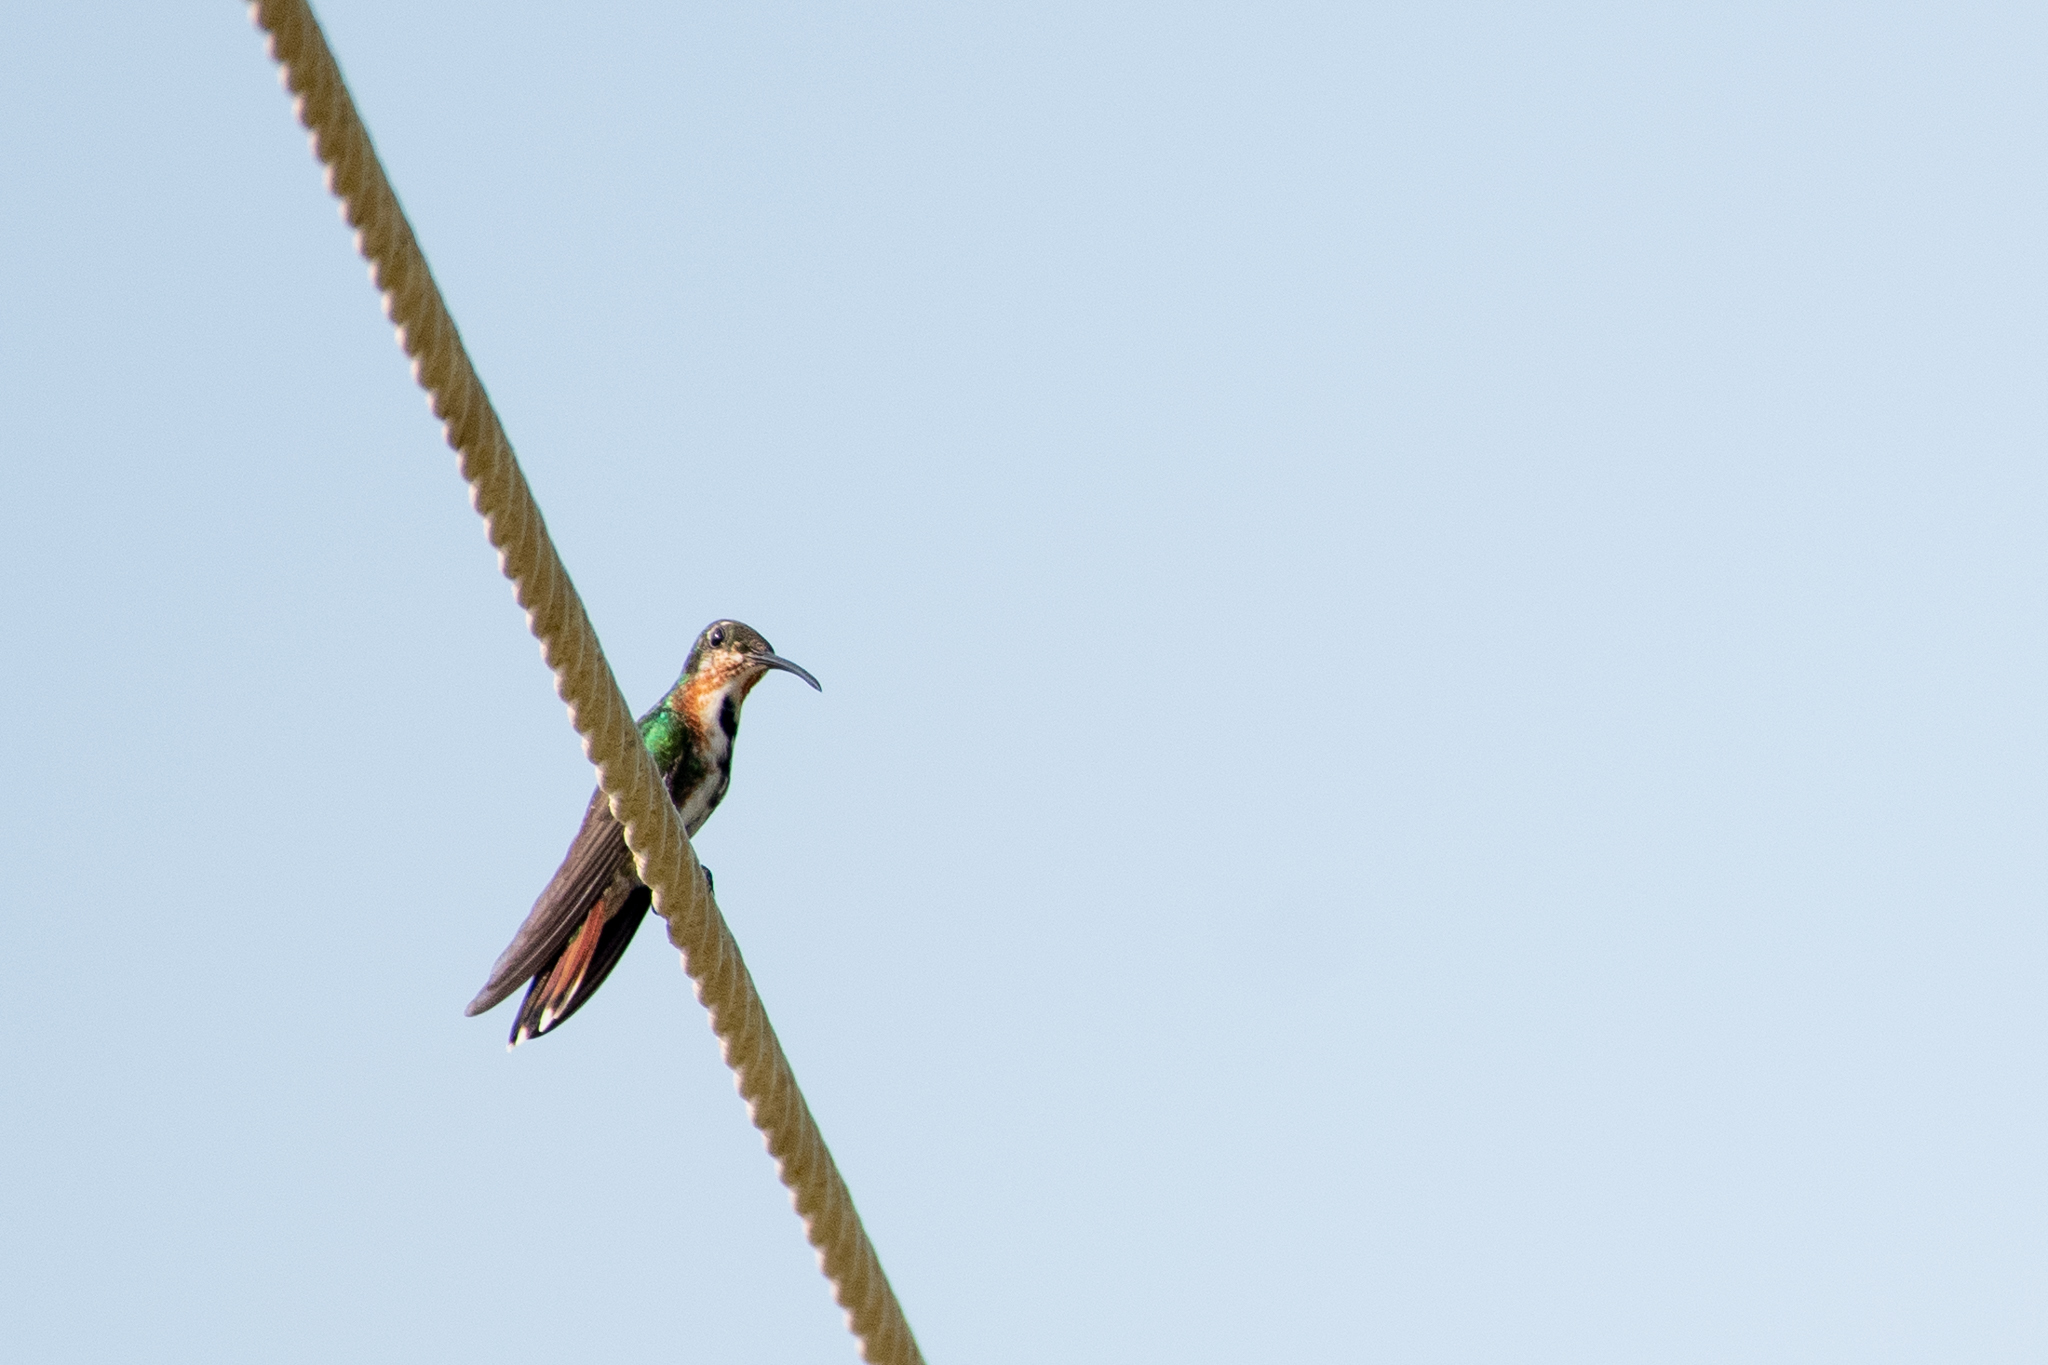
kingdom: Animalia
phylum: Chordata
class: Aves
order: Apodiformes
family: Trochilidae
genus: Anthracothorax
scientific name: Anthracothorax prevostii
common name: Green-breasted mango
